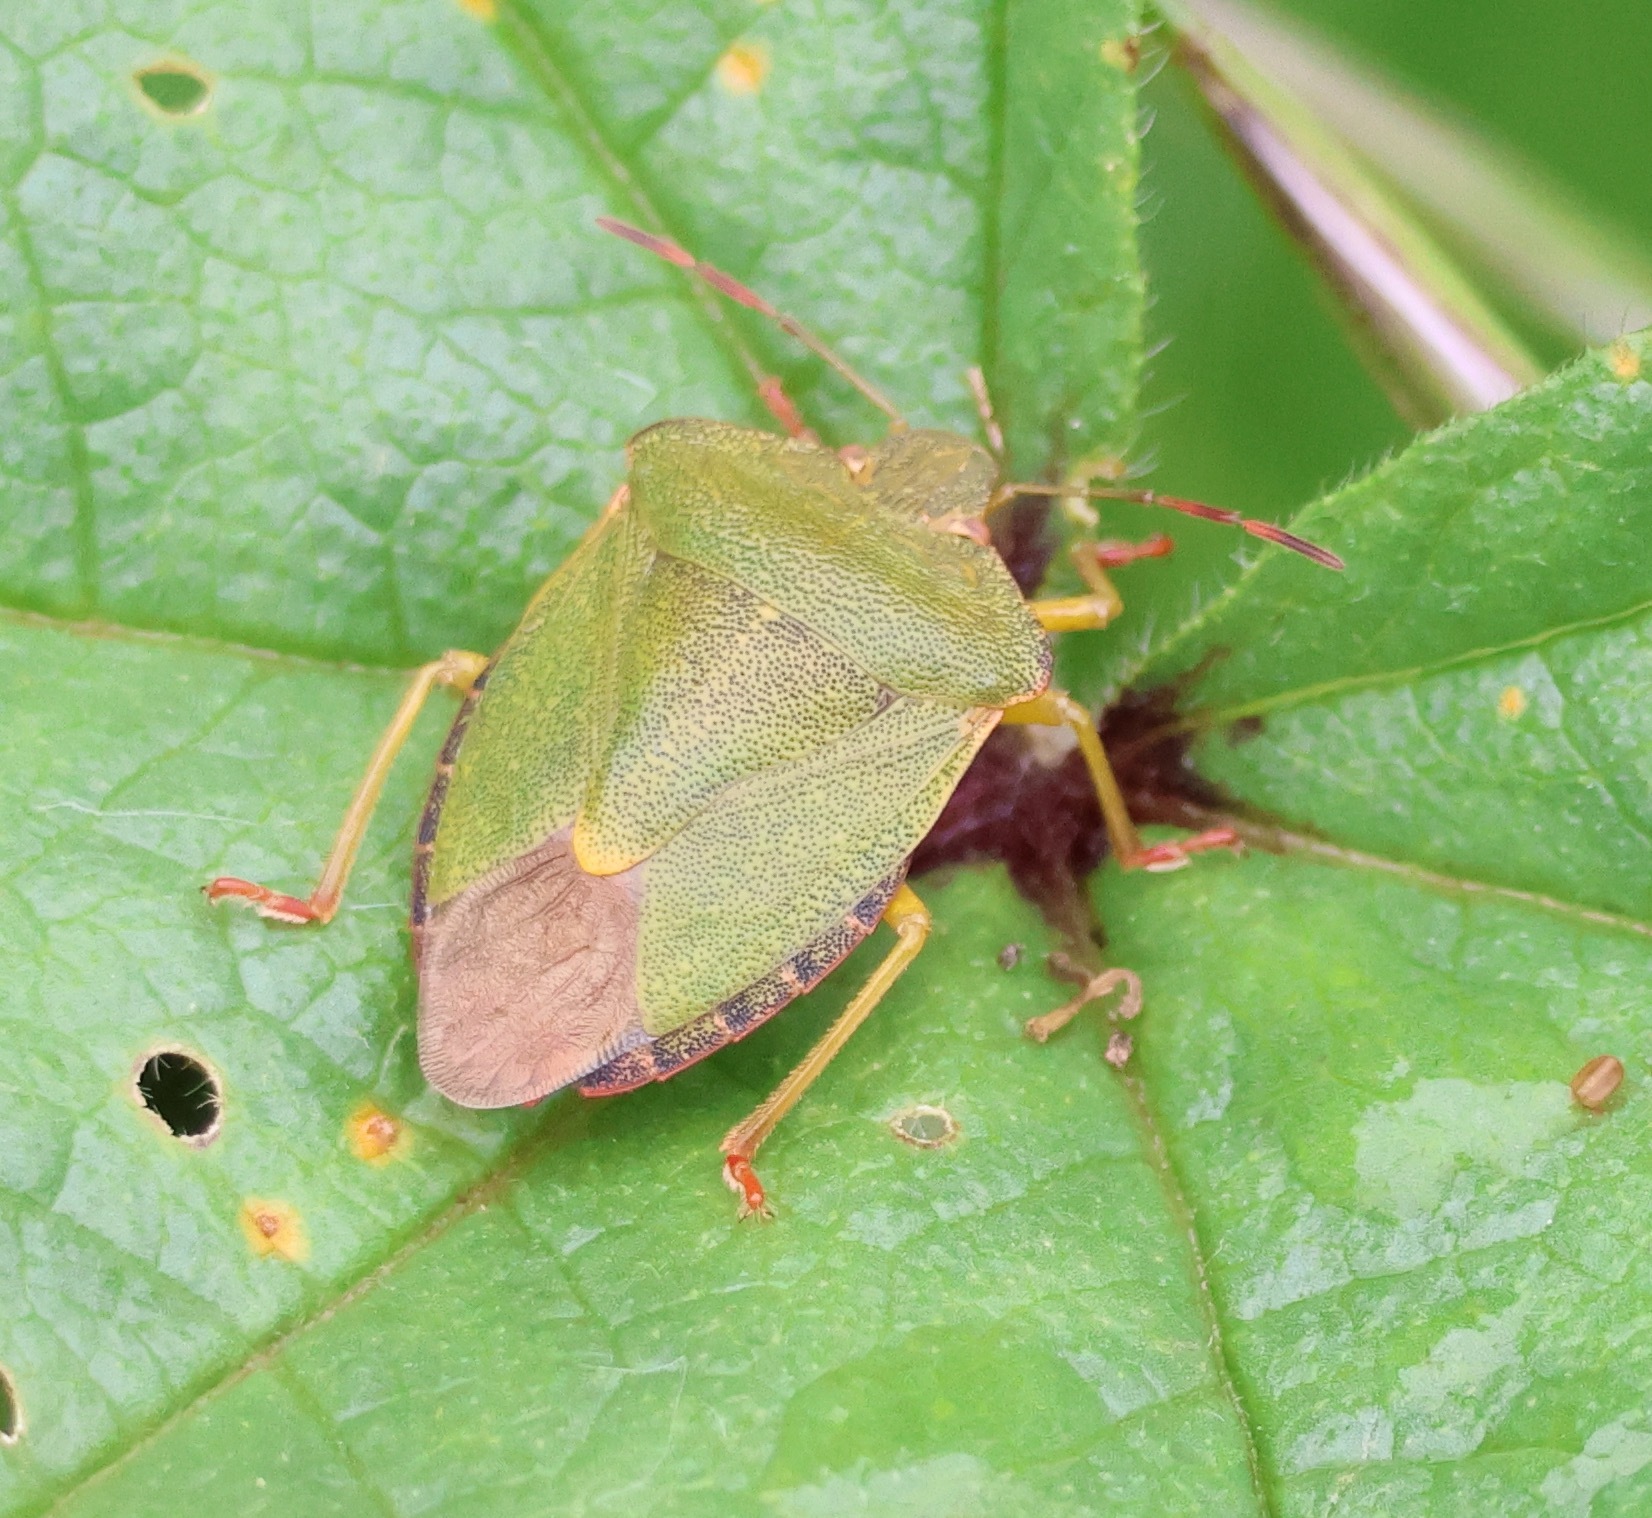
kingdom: Animalia
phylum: Arthropoda
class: Insecta
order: Hemiptera
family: Pentatomidae
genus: Palomena
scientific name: Palomena prasina
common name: Green shieldbug
